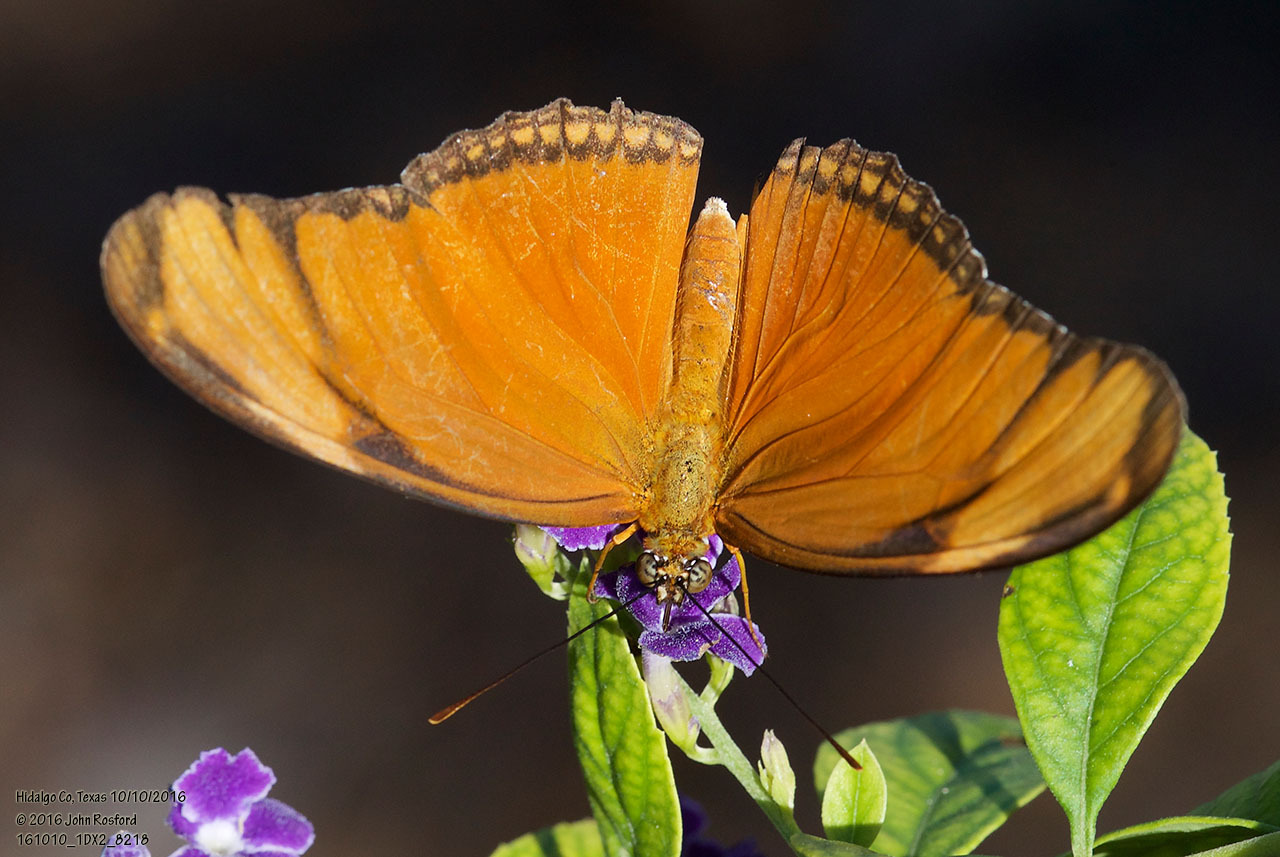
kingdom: Animalia
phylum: Arthropoda
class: Insecta
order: Lepidoptera
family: Nymphalidae
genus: Dryas
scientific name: Dryas iulia
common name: Flambeau
